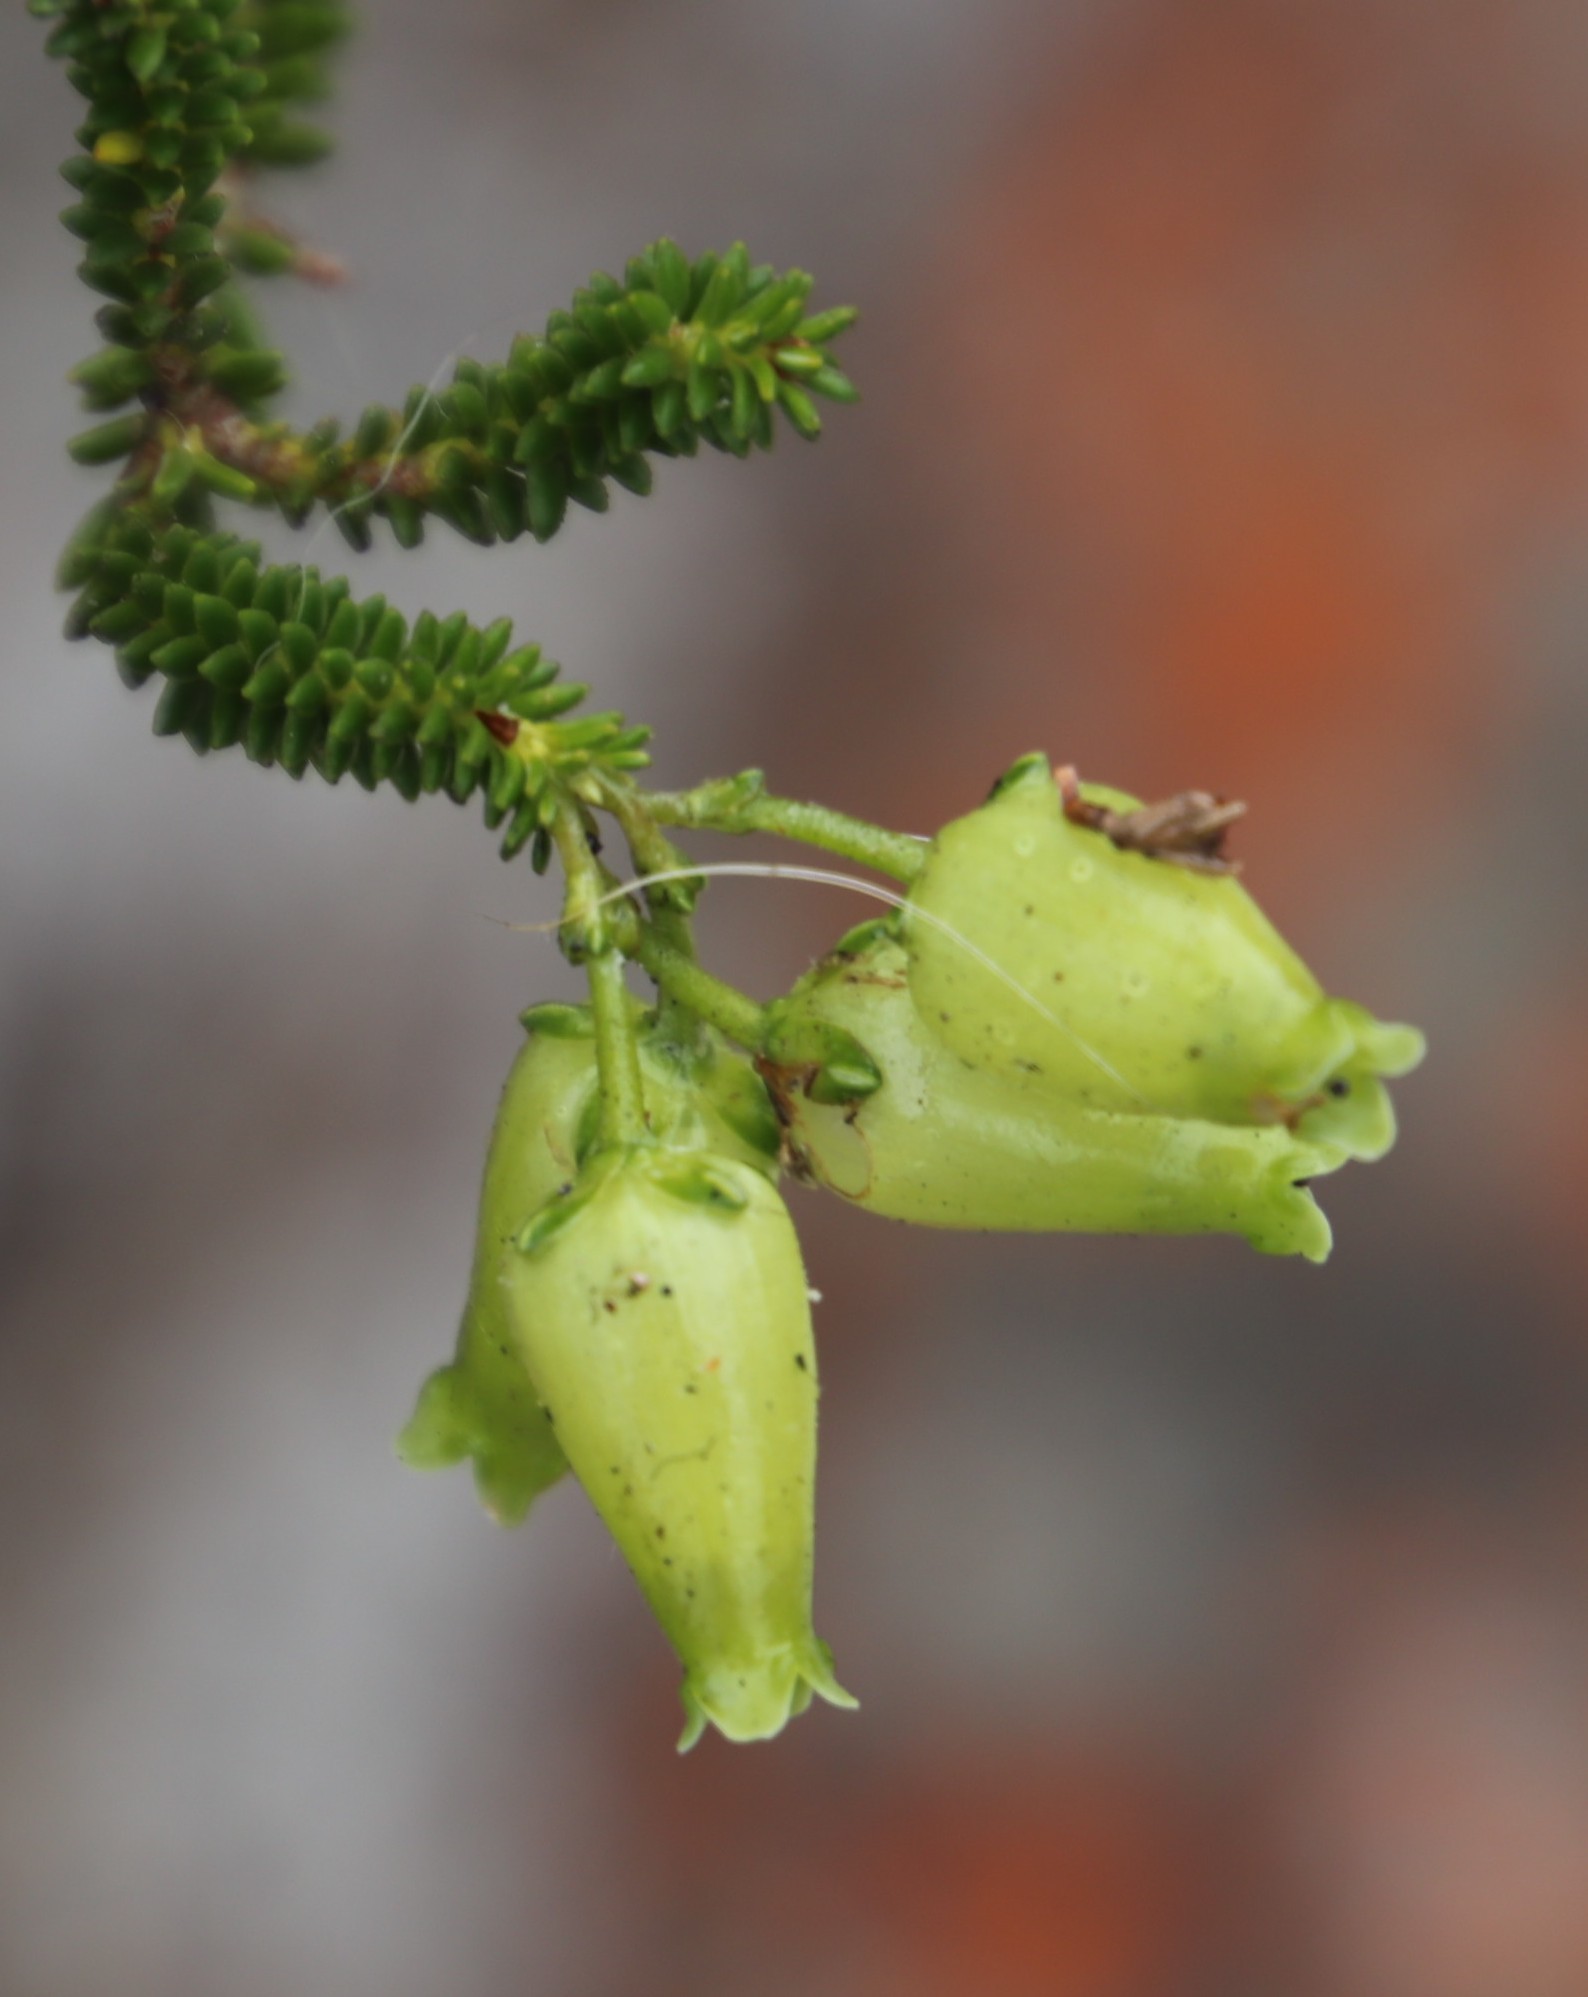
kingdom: Plantae
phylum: Tracheophyta
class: Magnoliopsida
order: Ericales
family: Ericaceae
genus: Erica
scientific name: Erica urna-viridis
